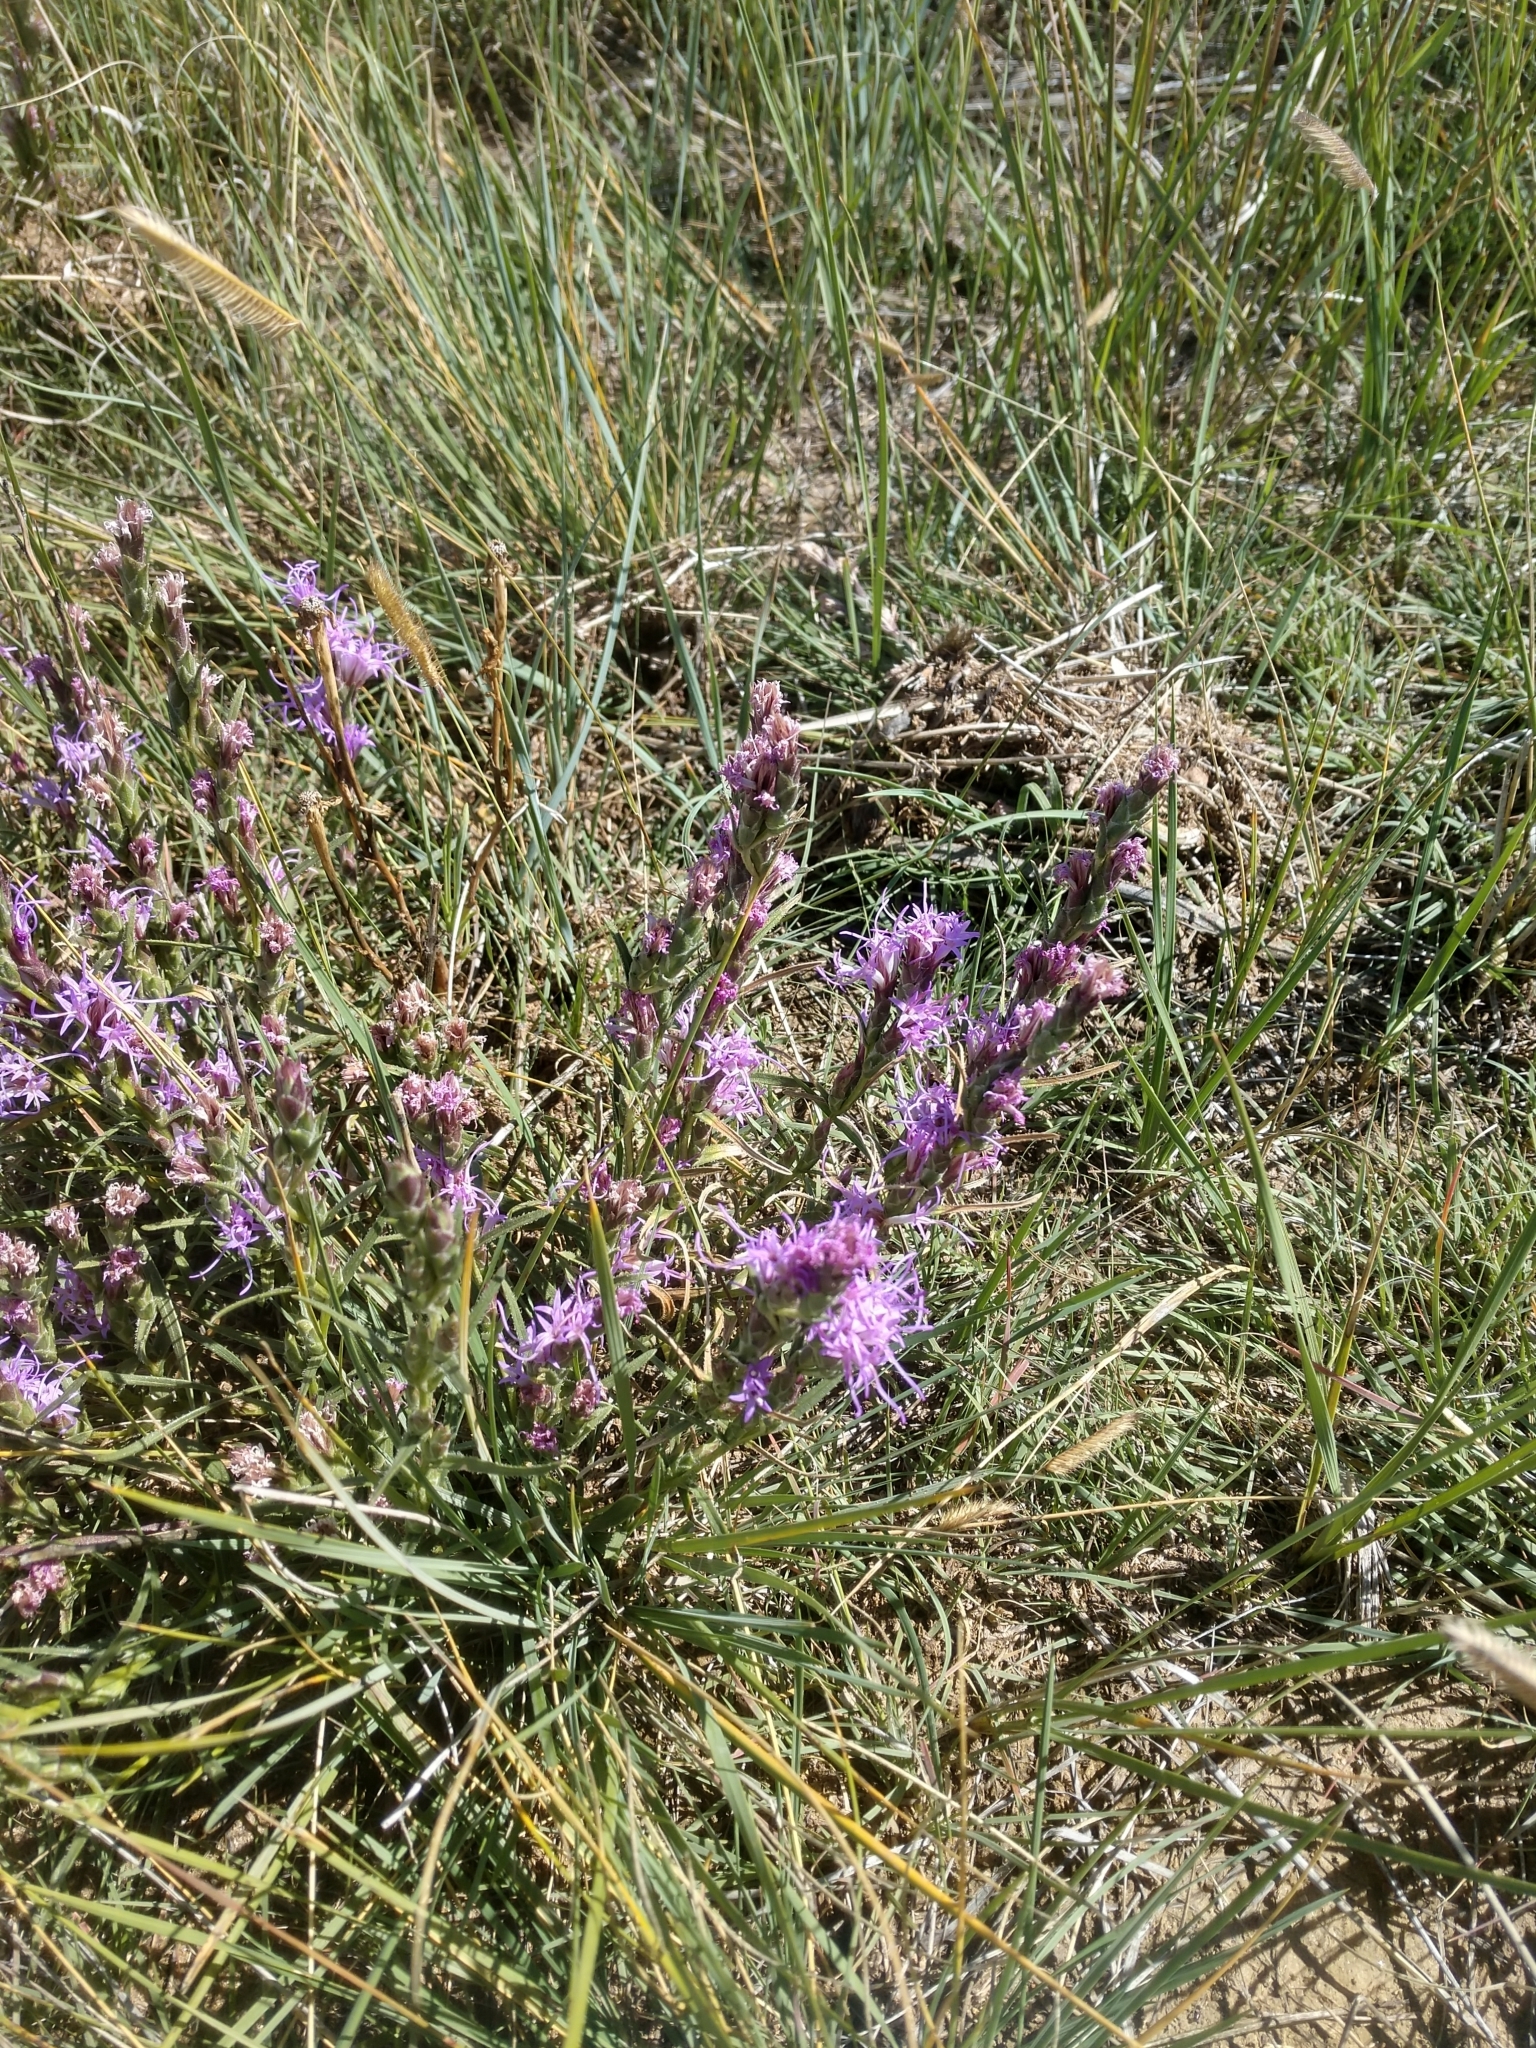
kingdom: Plantae
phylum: Tracheophyta
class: Magnoliopsida
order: Asterales
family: Asteraceae
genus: Liatris
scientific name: Liatris punctata
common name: Dotted gayfeather
